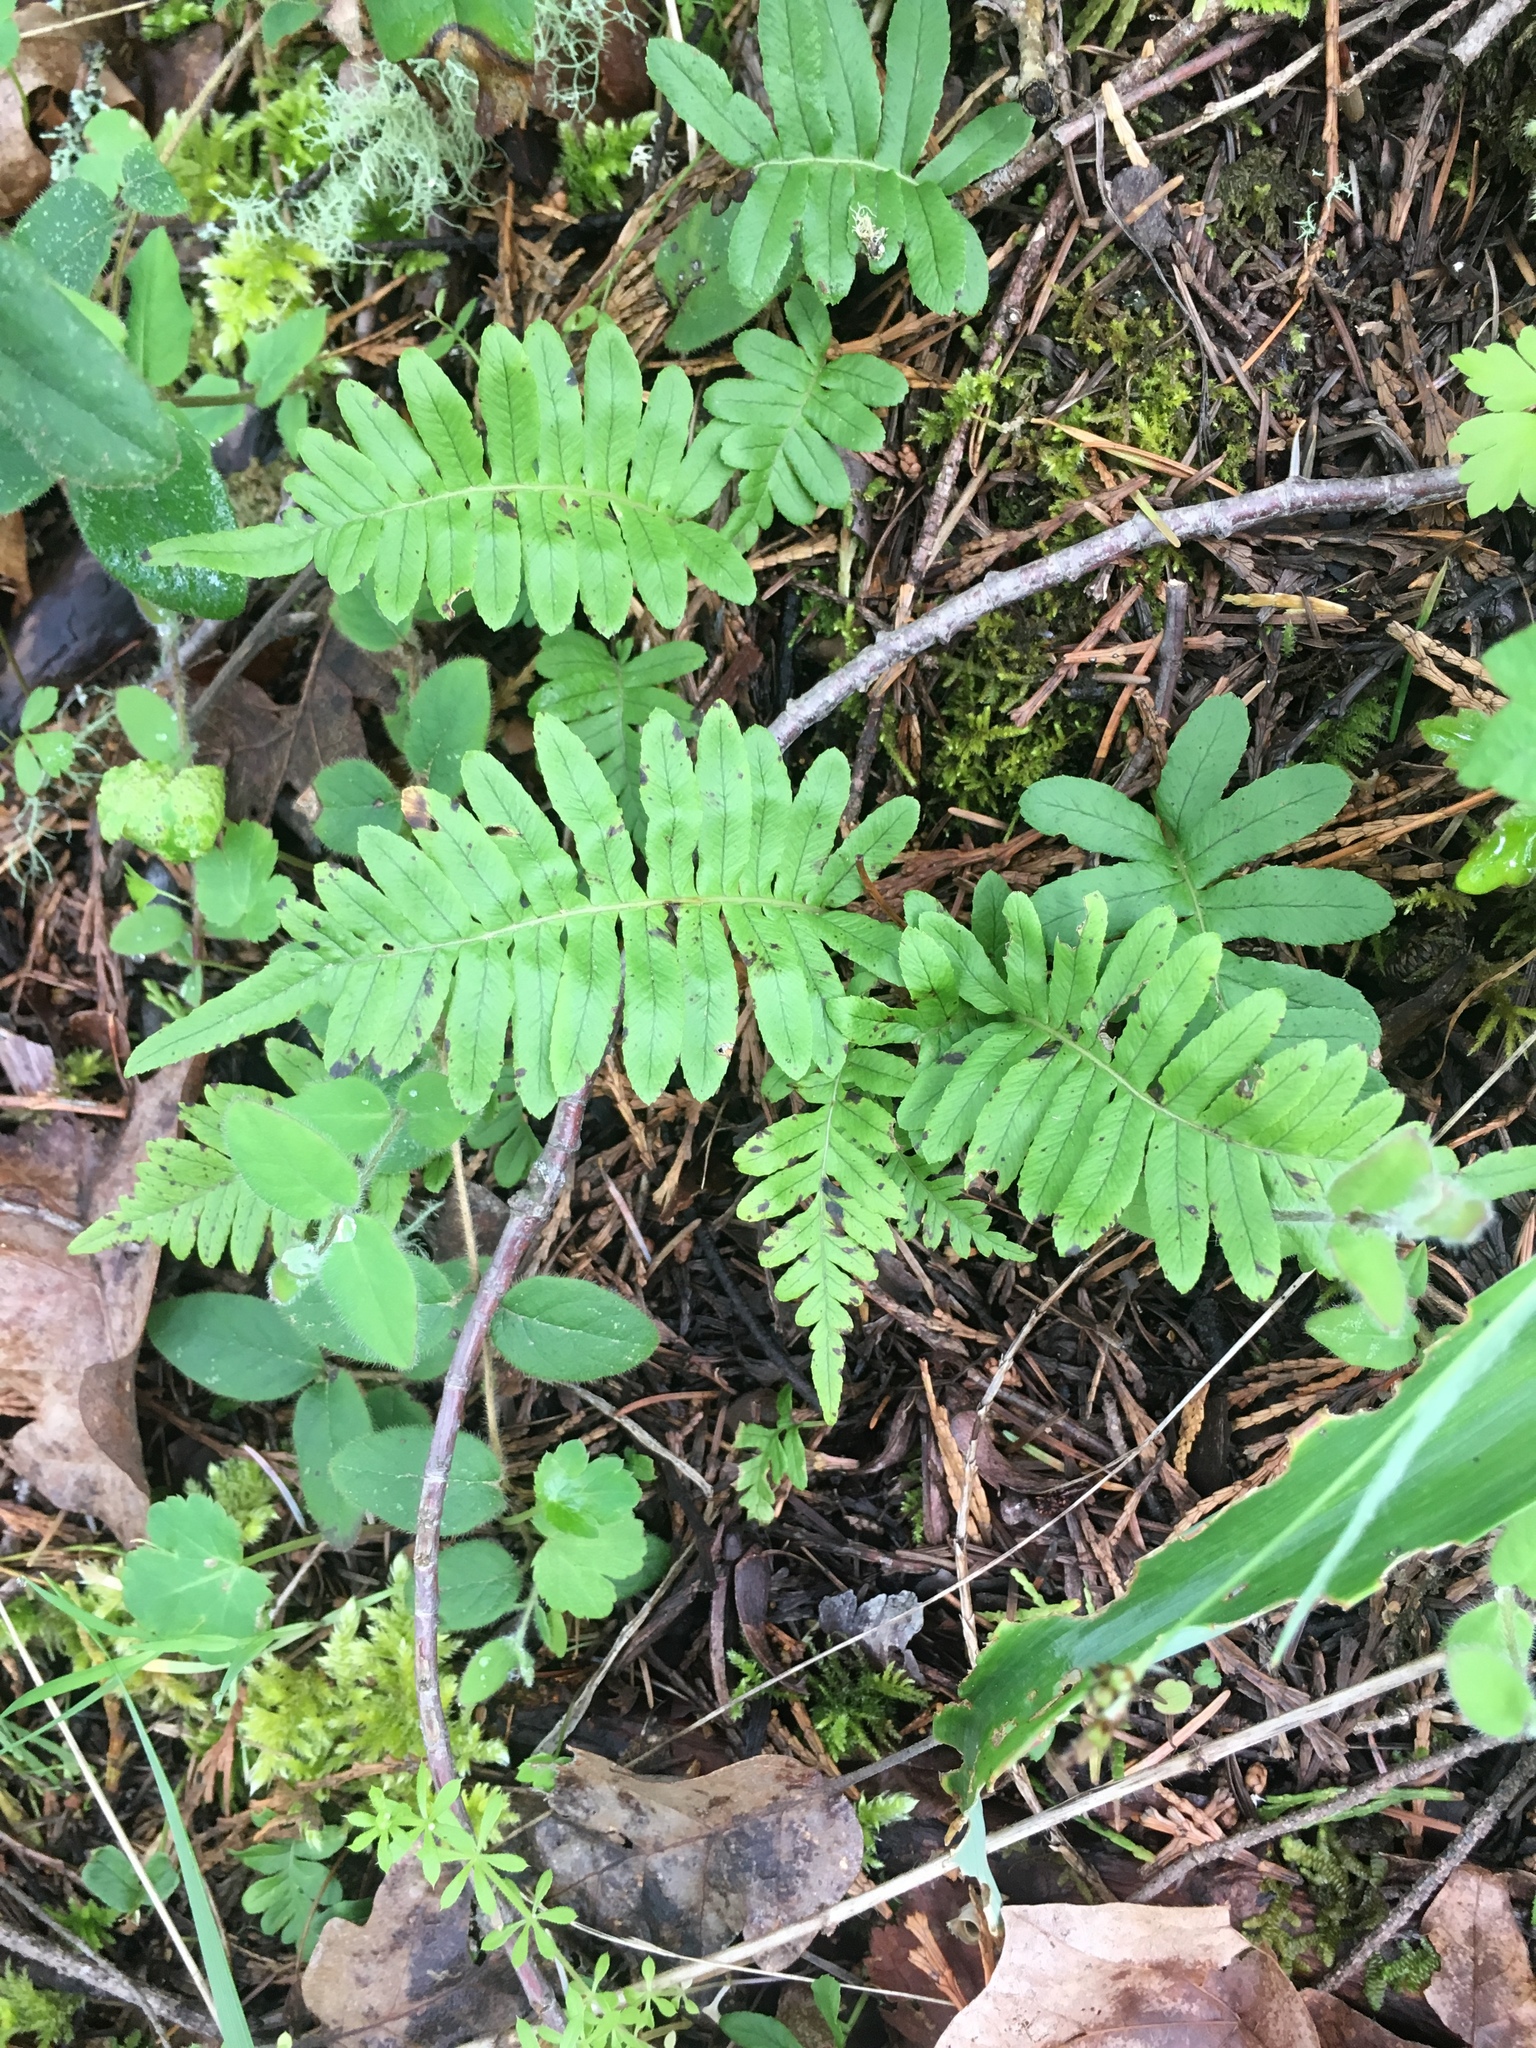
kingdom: Plantae
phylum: Tracheophyta
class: Polypodiopsida
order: Polypodiales
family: Polypodiaceae
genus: Polypodium
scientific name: Polypodium glycyrrhiza
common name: Licorice fern
